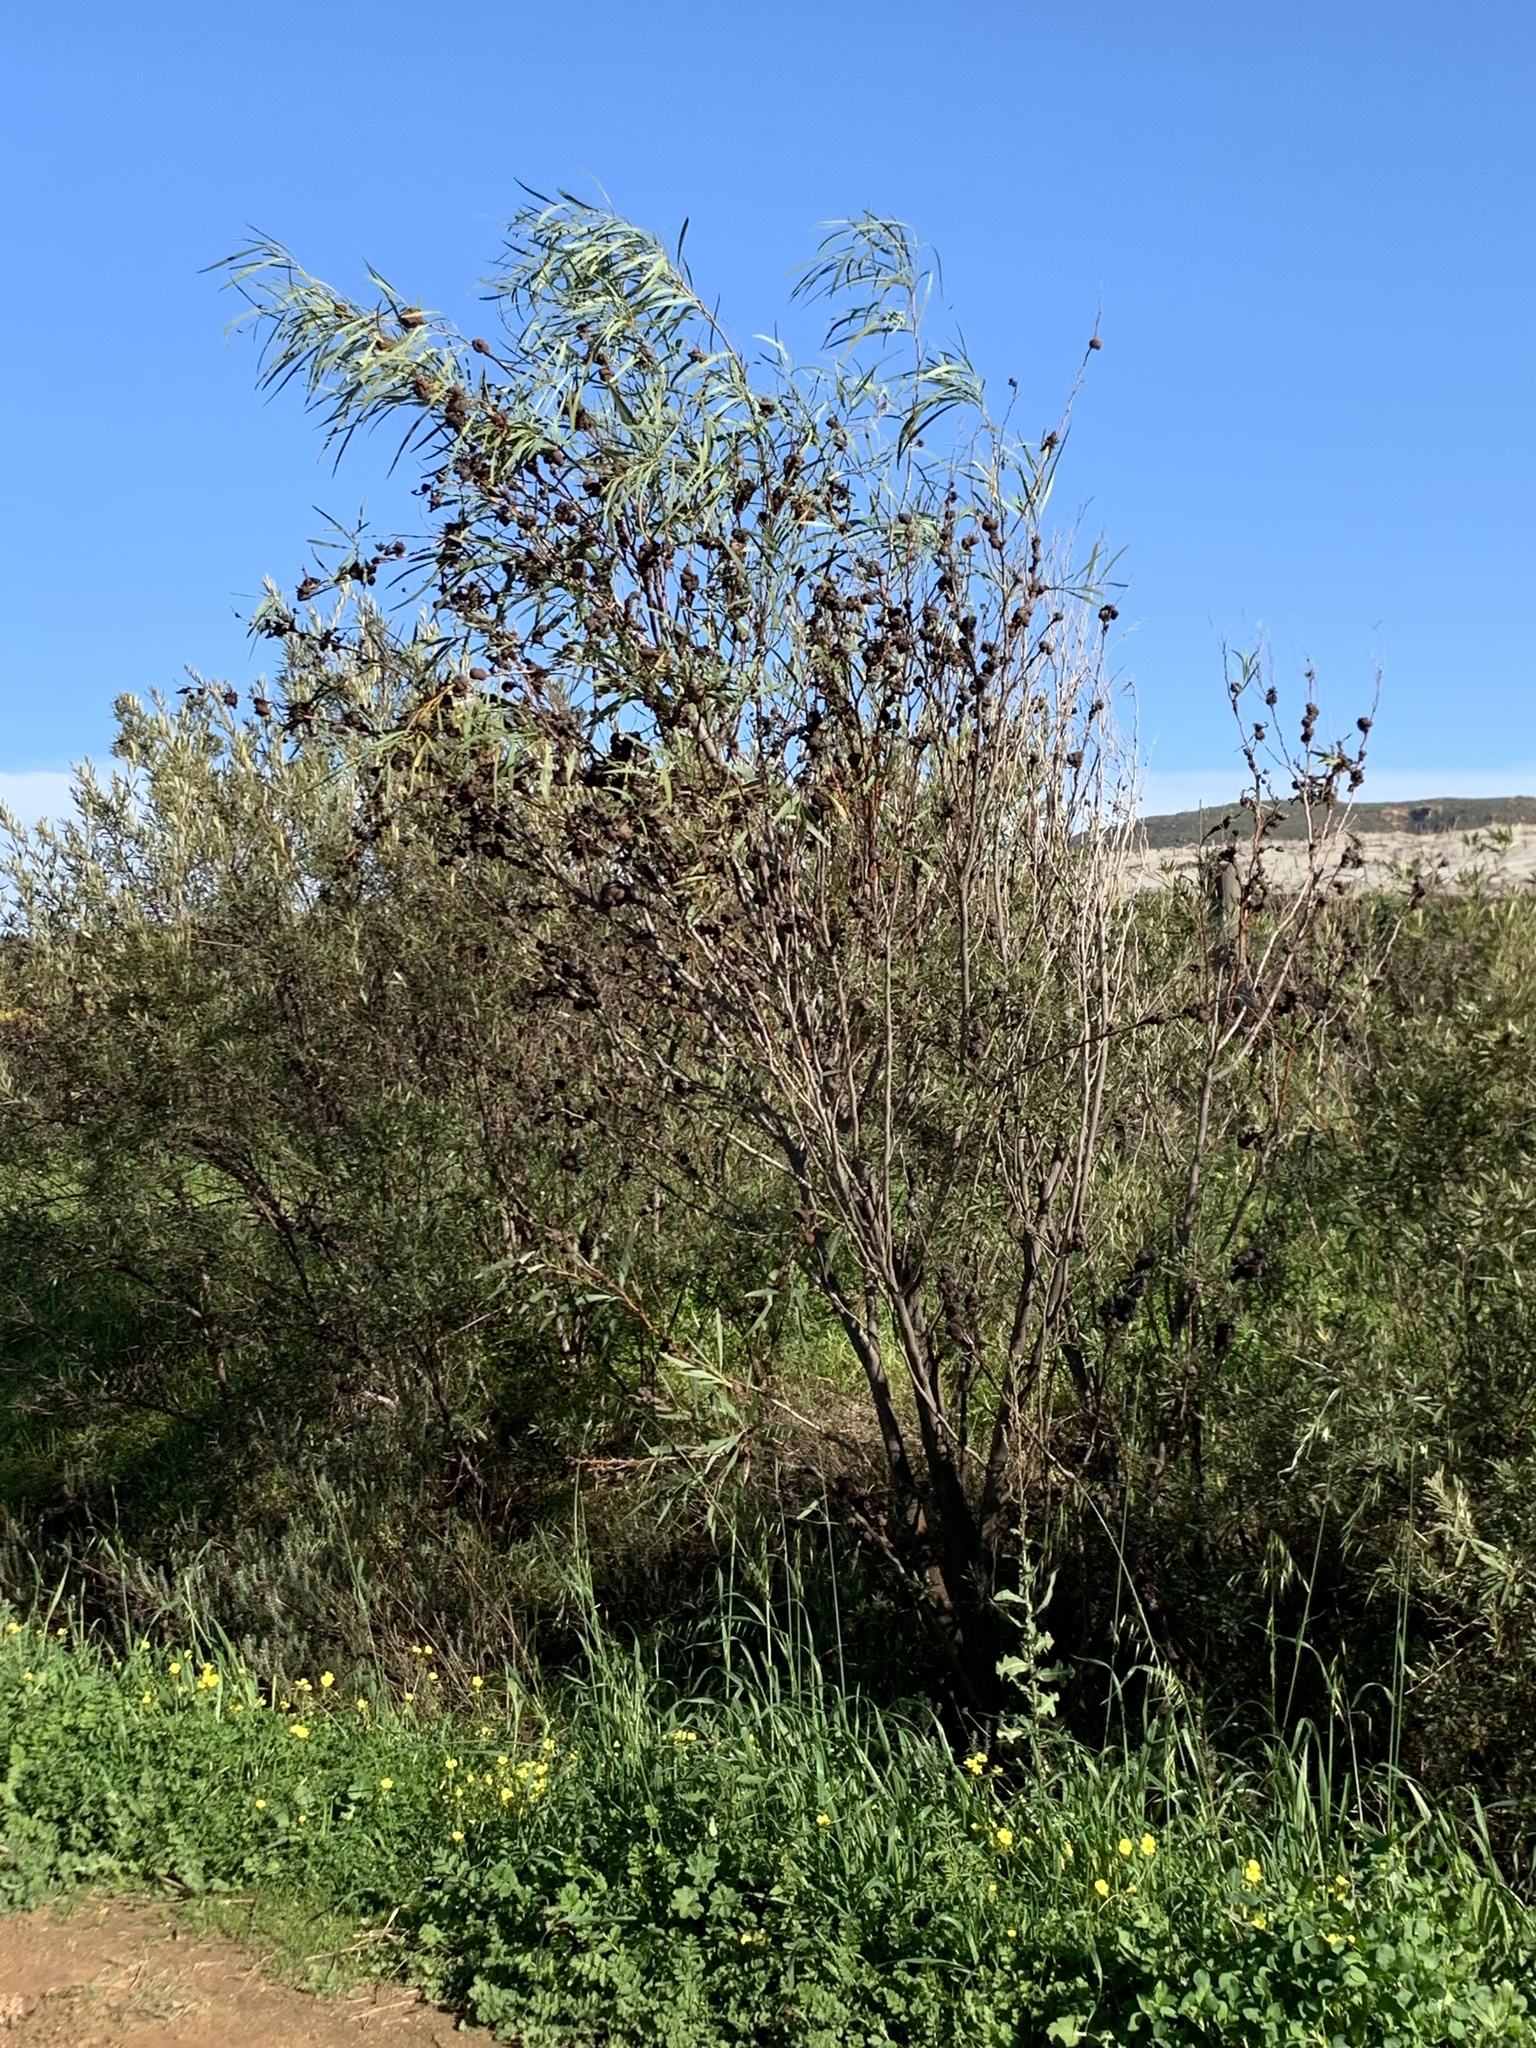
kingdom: Plantae
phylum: Tracheophyta
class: Magnoliopsida
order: Fabales
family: Fabaceae
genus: Acacia
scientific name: Acacia saligna
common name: Orange wattle
